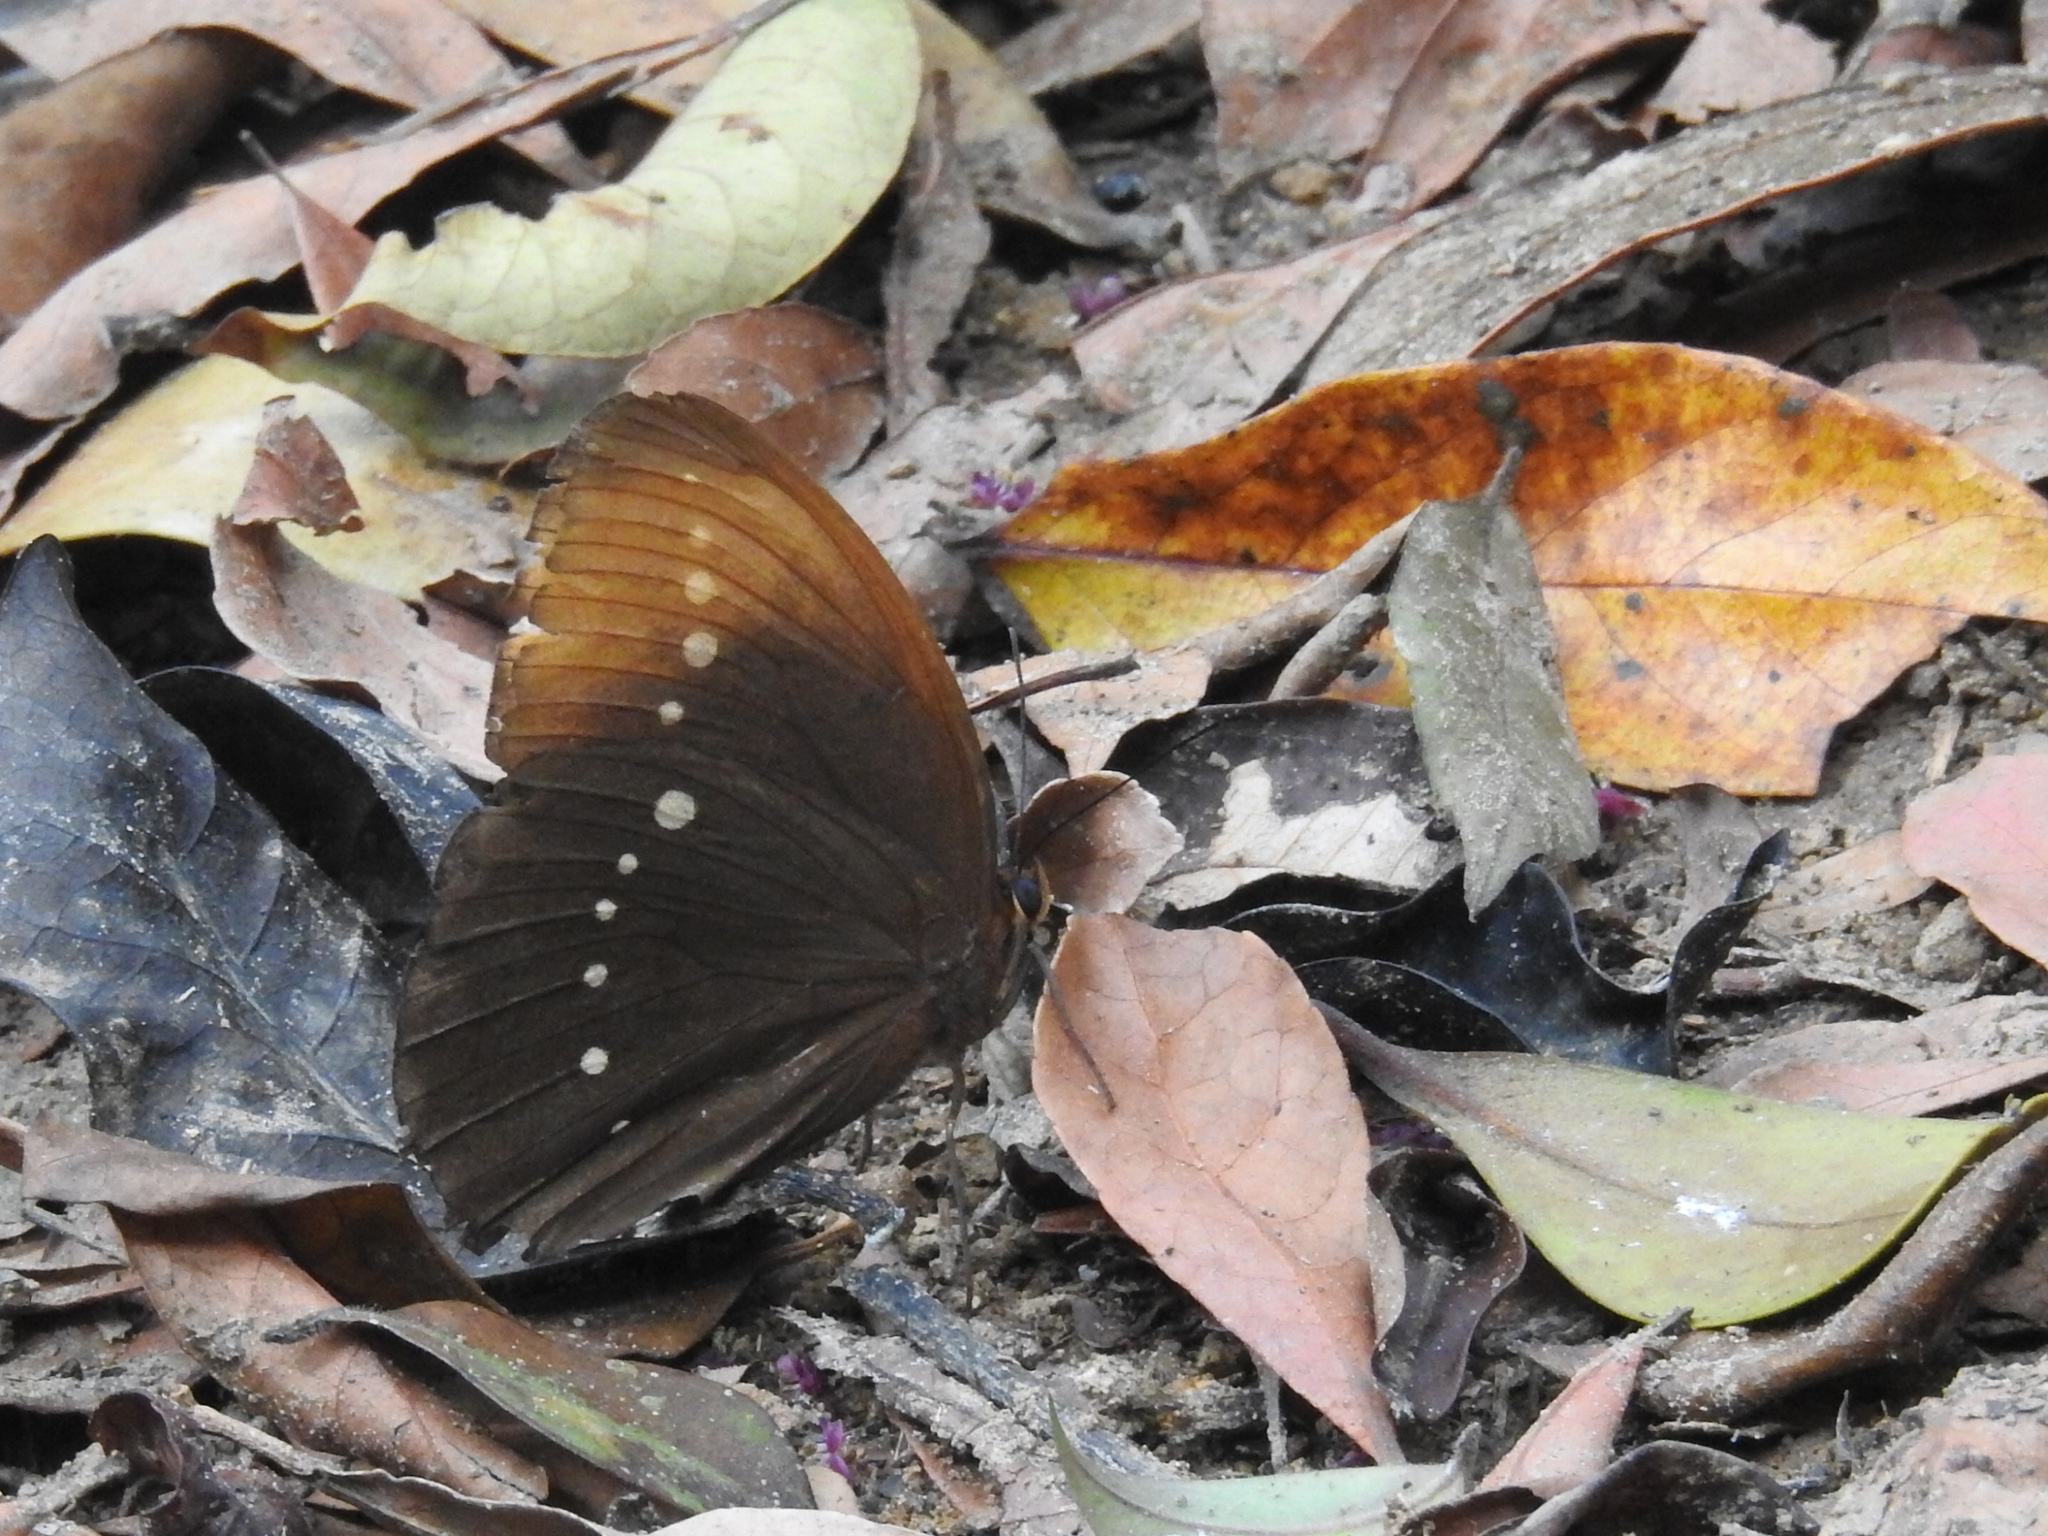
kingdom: Animalia
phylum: Arthropoda
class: Insecta
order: Lepidoptera
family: Nymphalidae
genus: Faunis
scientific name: Faunis eumeus
